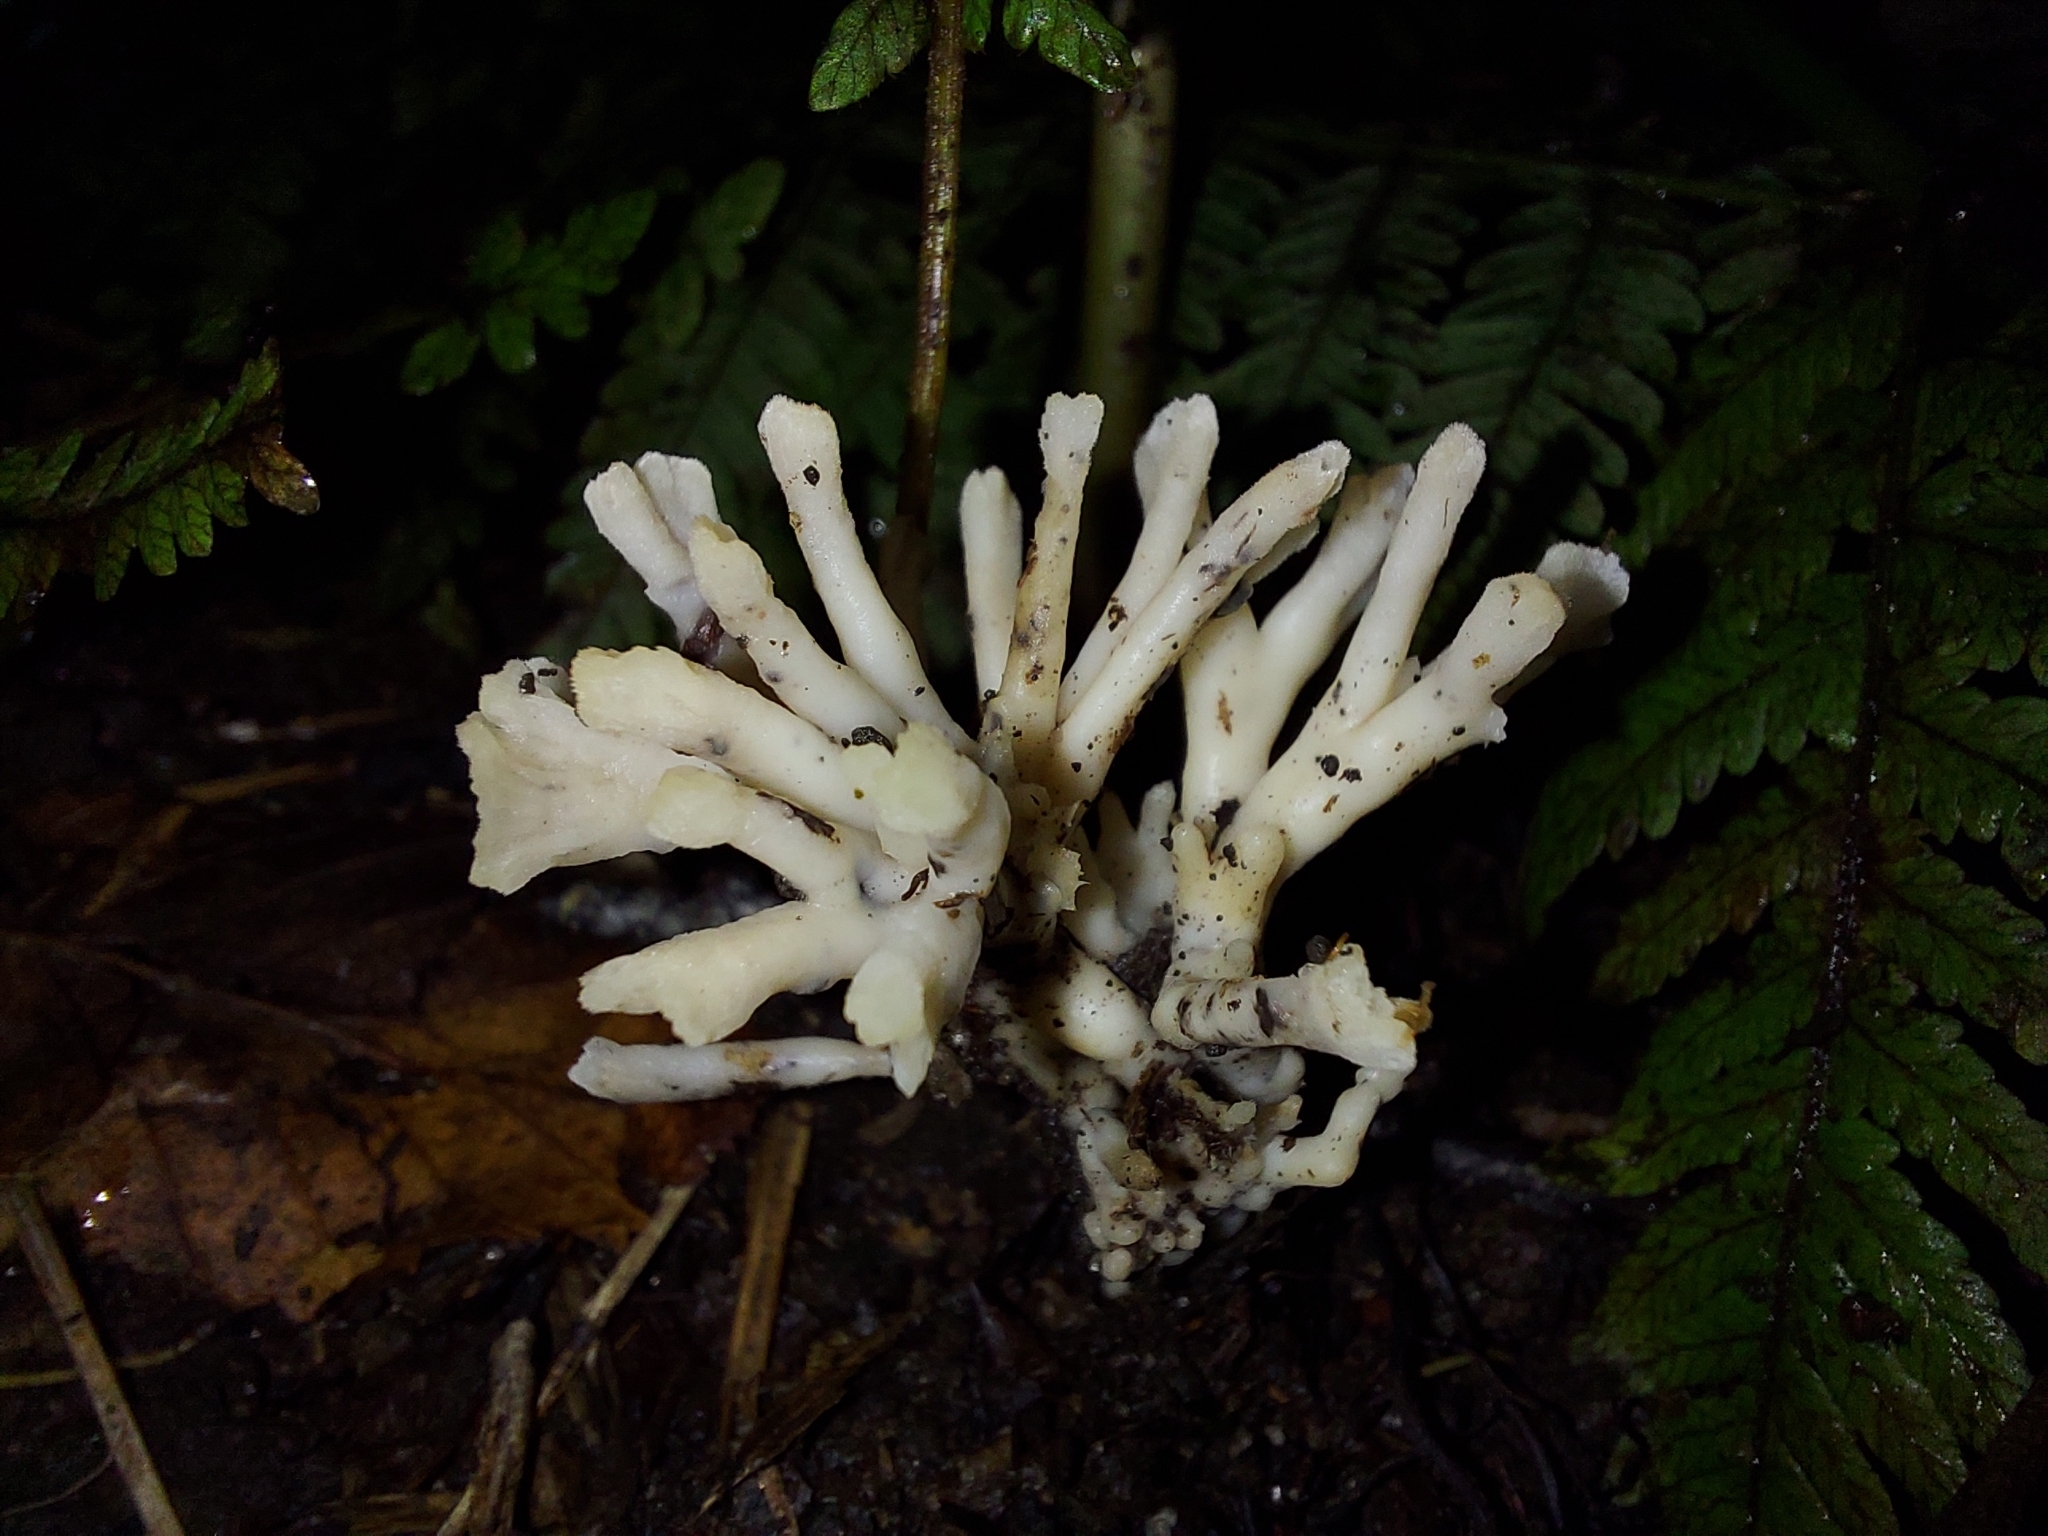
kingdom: Fungi
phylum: Basidiomycota
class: Agaricomycetes
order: Agaricales
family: Clavariaceae
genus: Ramariopsis
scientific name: Ramariopsis kunzei
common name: Ivory coral
